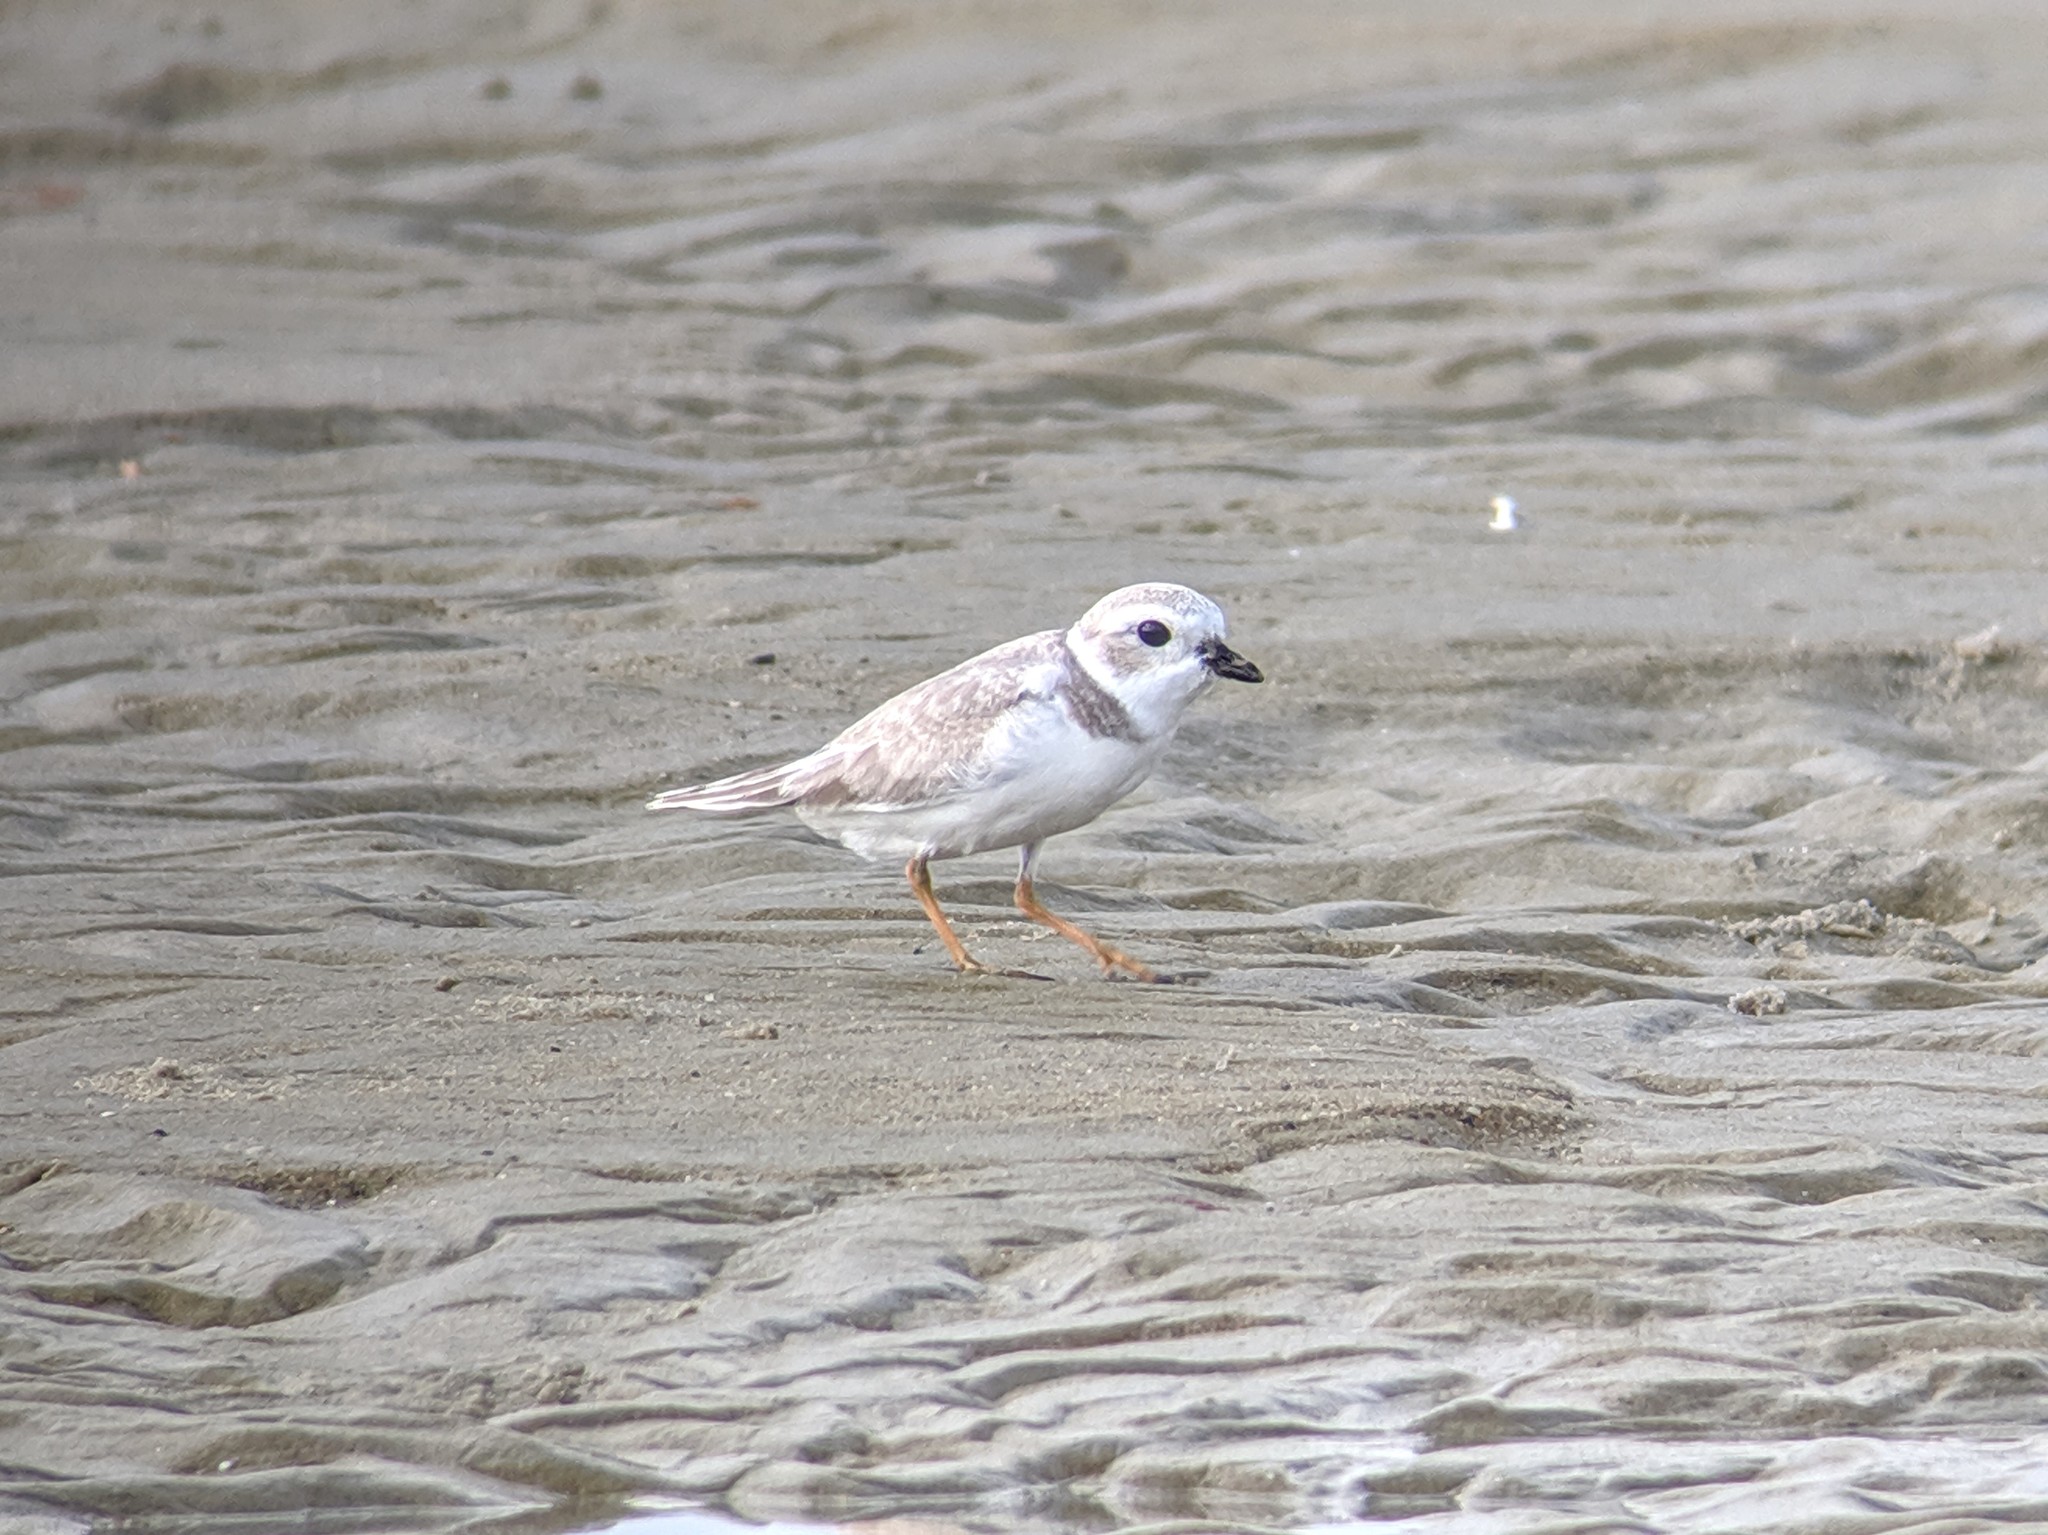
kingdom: Animalia
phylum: Chordata
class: Aves
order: Charadriiformes
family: Charadriidae
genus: Charadrius
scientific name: Charadrius melodus
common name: Piping plover
